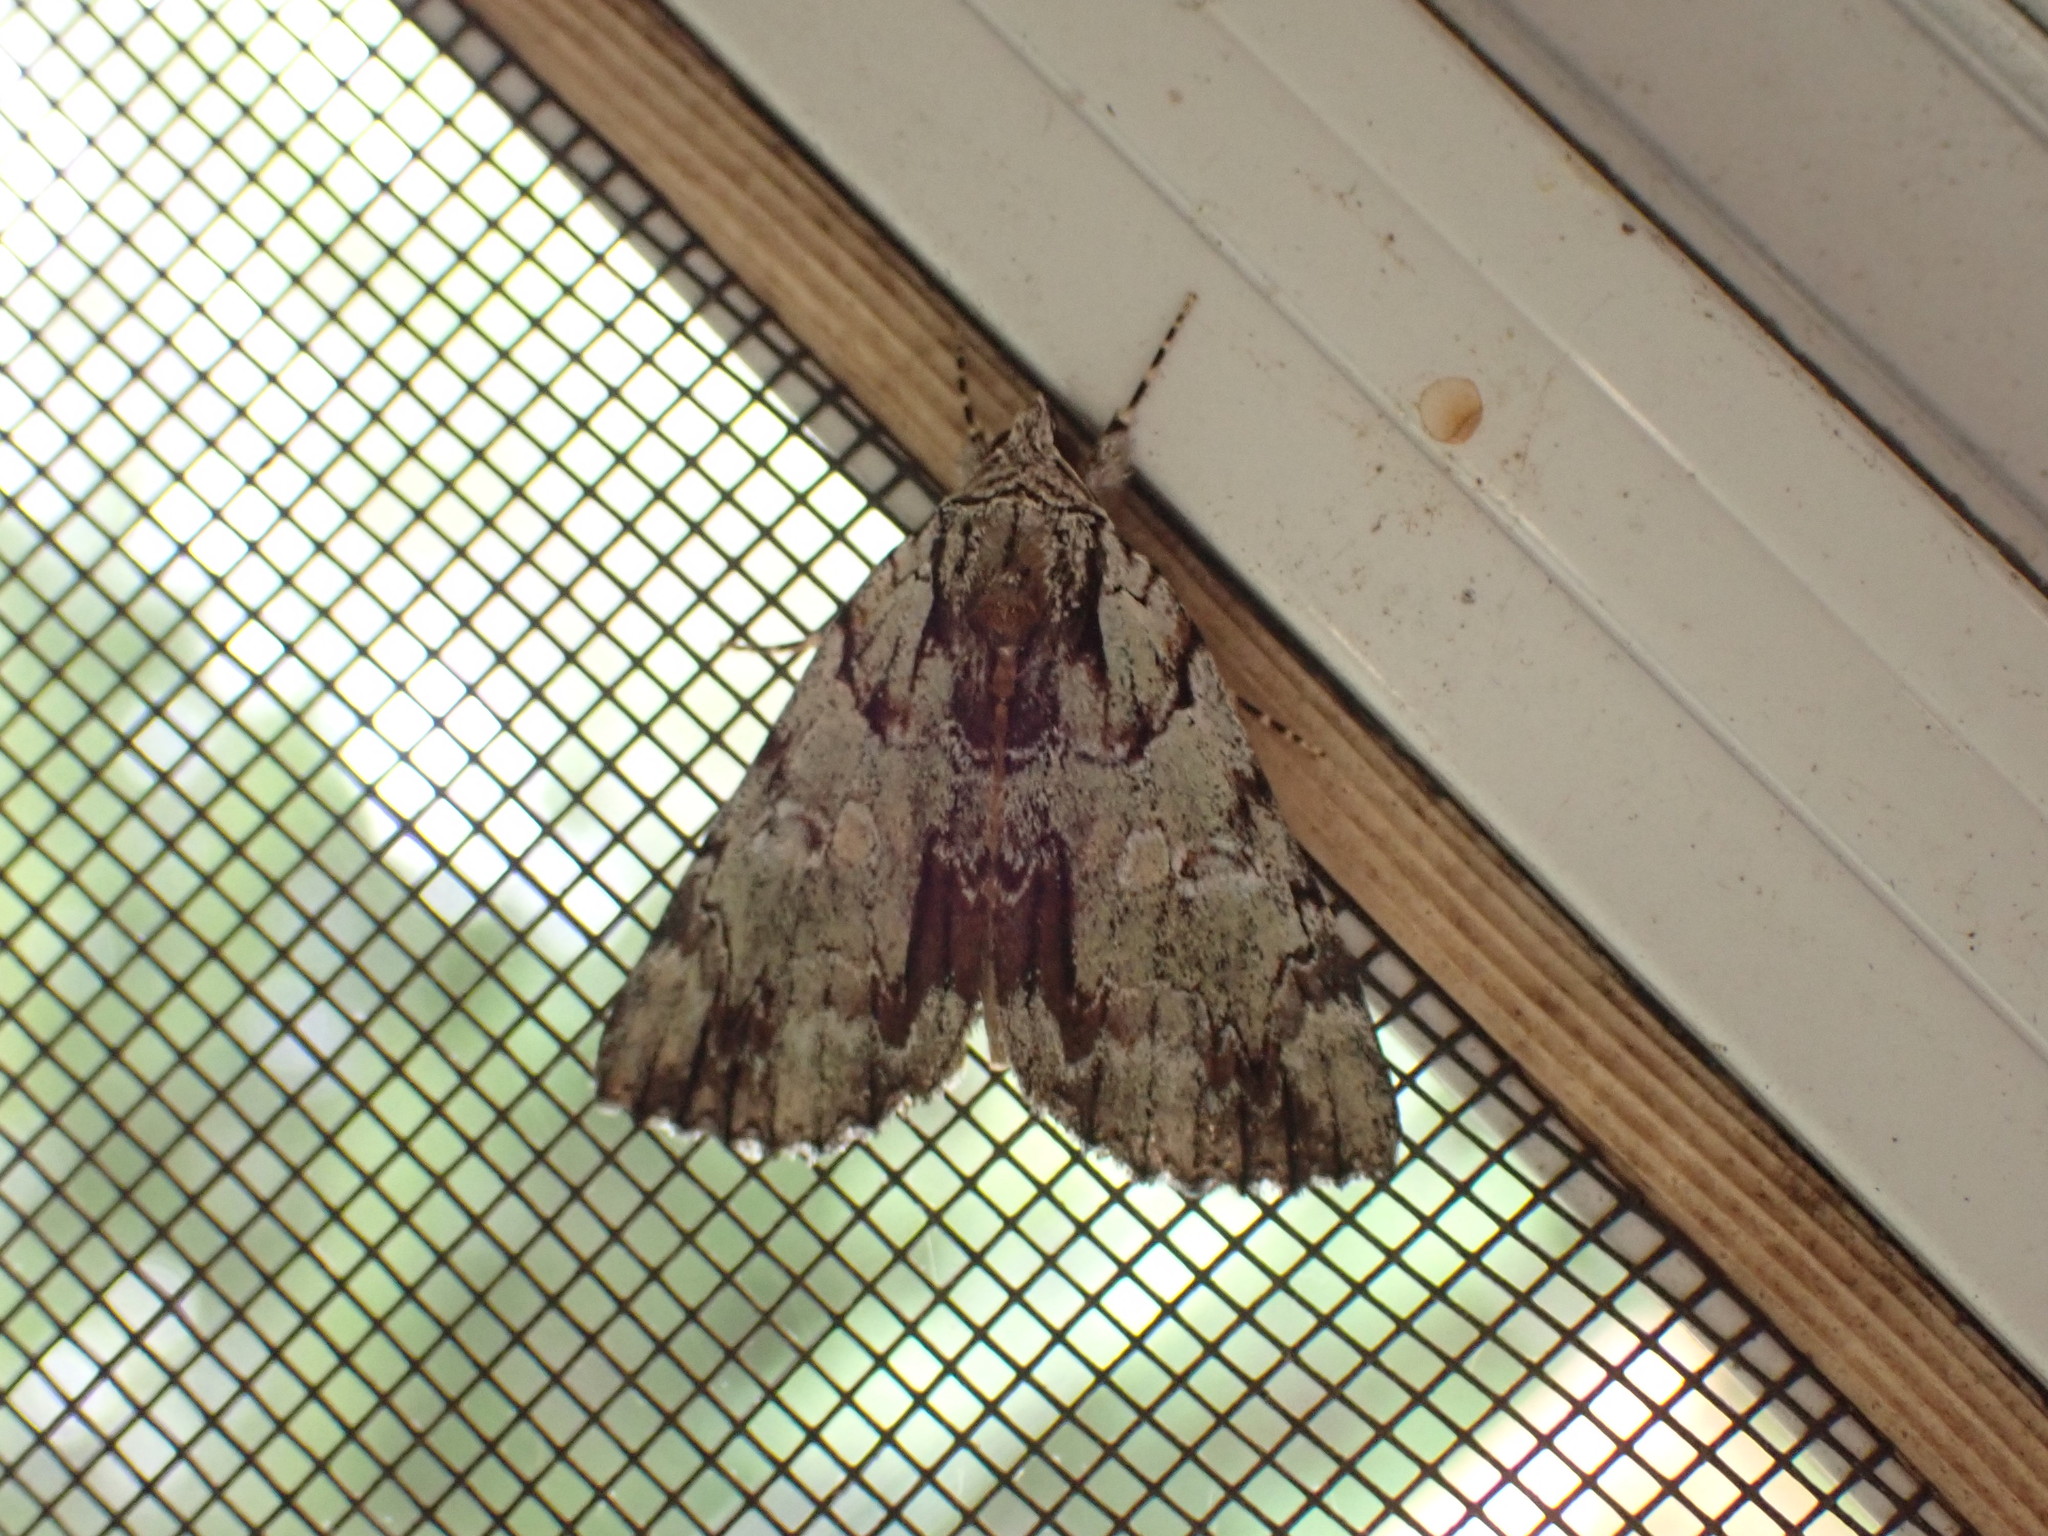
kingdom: Animalia
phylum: Arthropoda
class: Insecta
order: Lepidoptera
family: Erebidae
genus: Catocala
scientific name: Catocala praeclara
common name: Praeclara underwing
